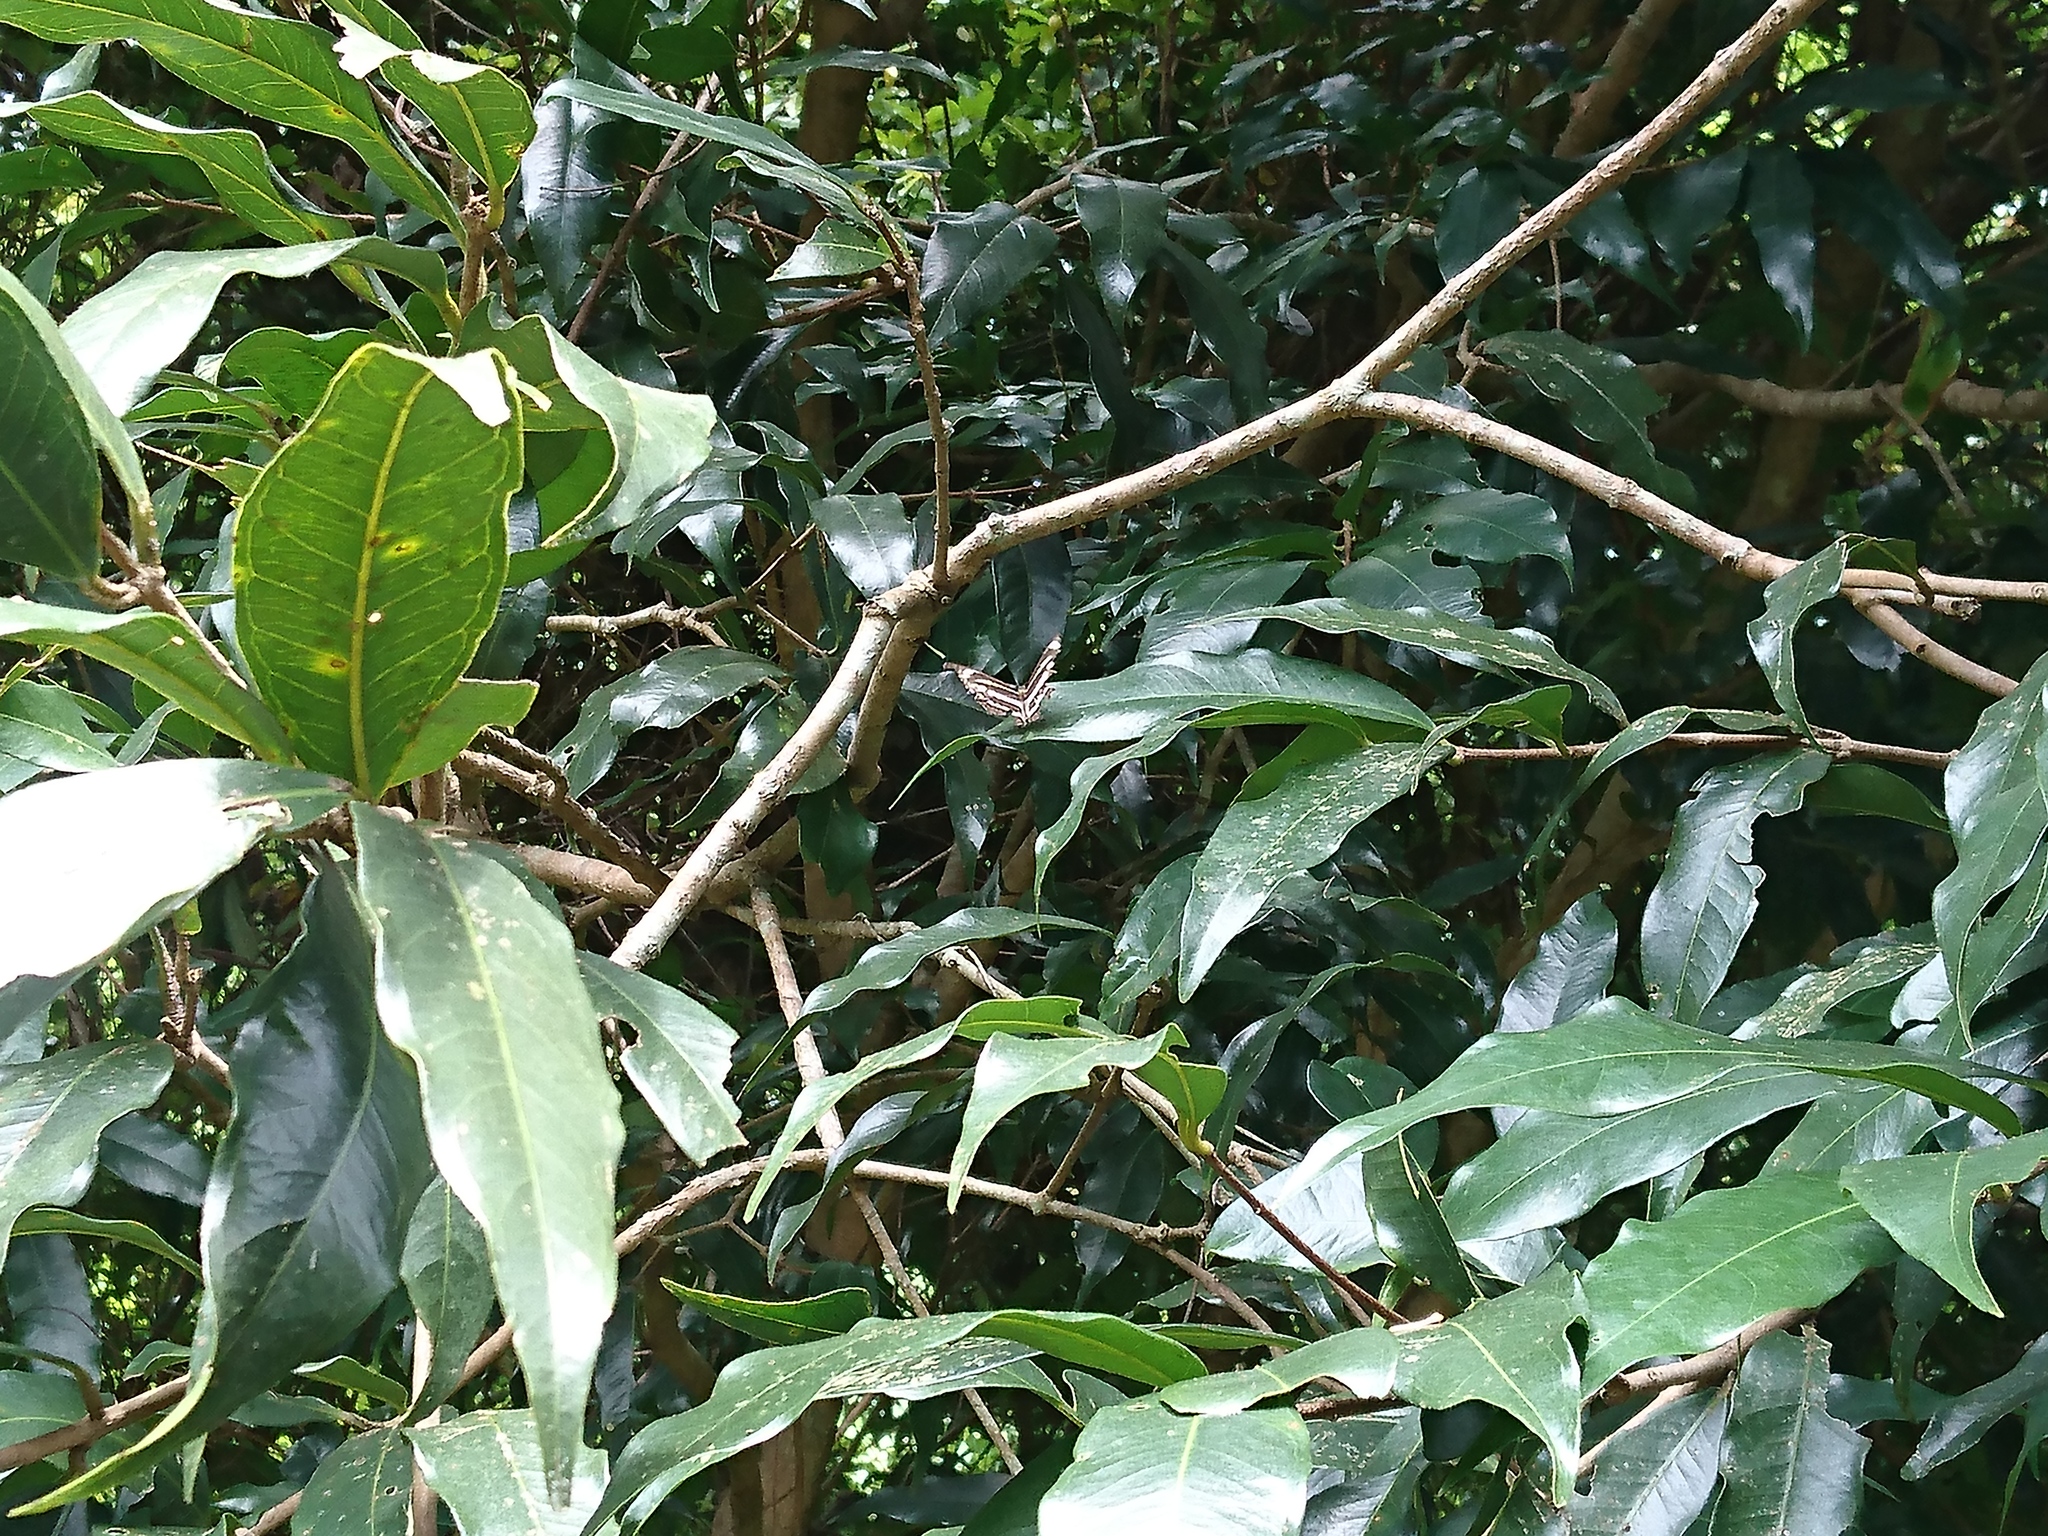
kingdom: Animalia
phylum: Arthropoda
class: Insecta
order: Lepidoptera
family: Nymphalidae
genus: Neptis
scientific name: Neptis clinia
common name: Southern sullied sailer
